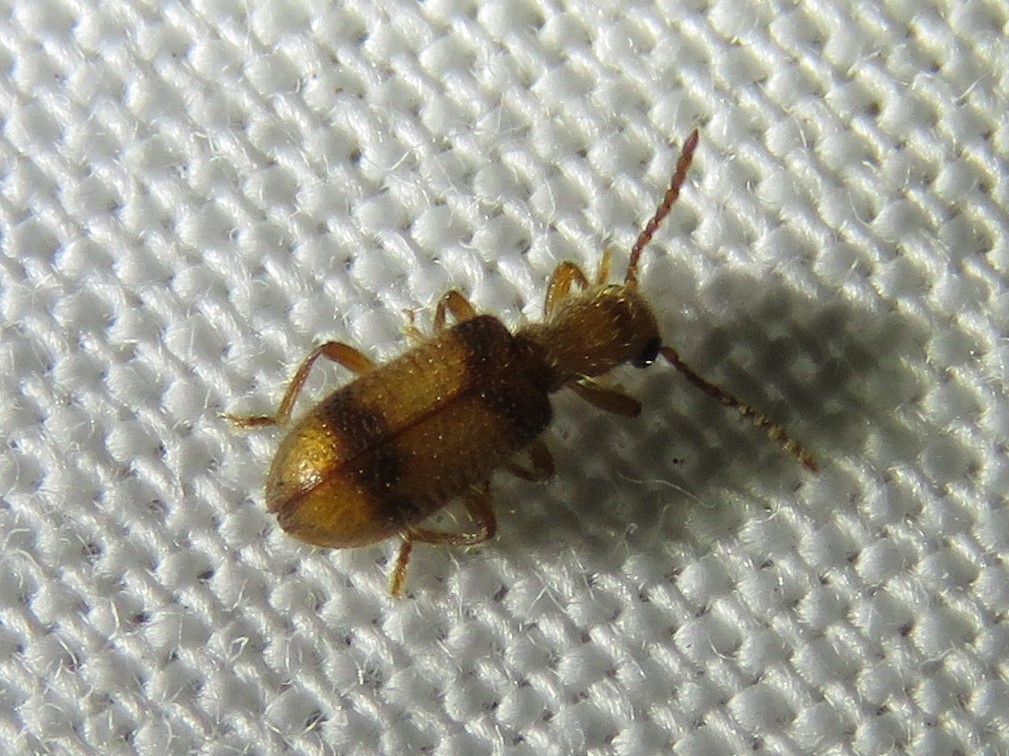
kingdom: Animalia
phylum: Arthropoda
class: Insecta
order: Coleoptera
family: Cleridae
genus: Cymatodera
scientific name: Cymatodera puncticollis
